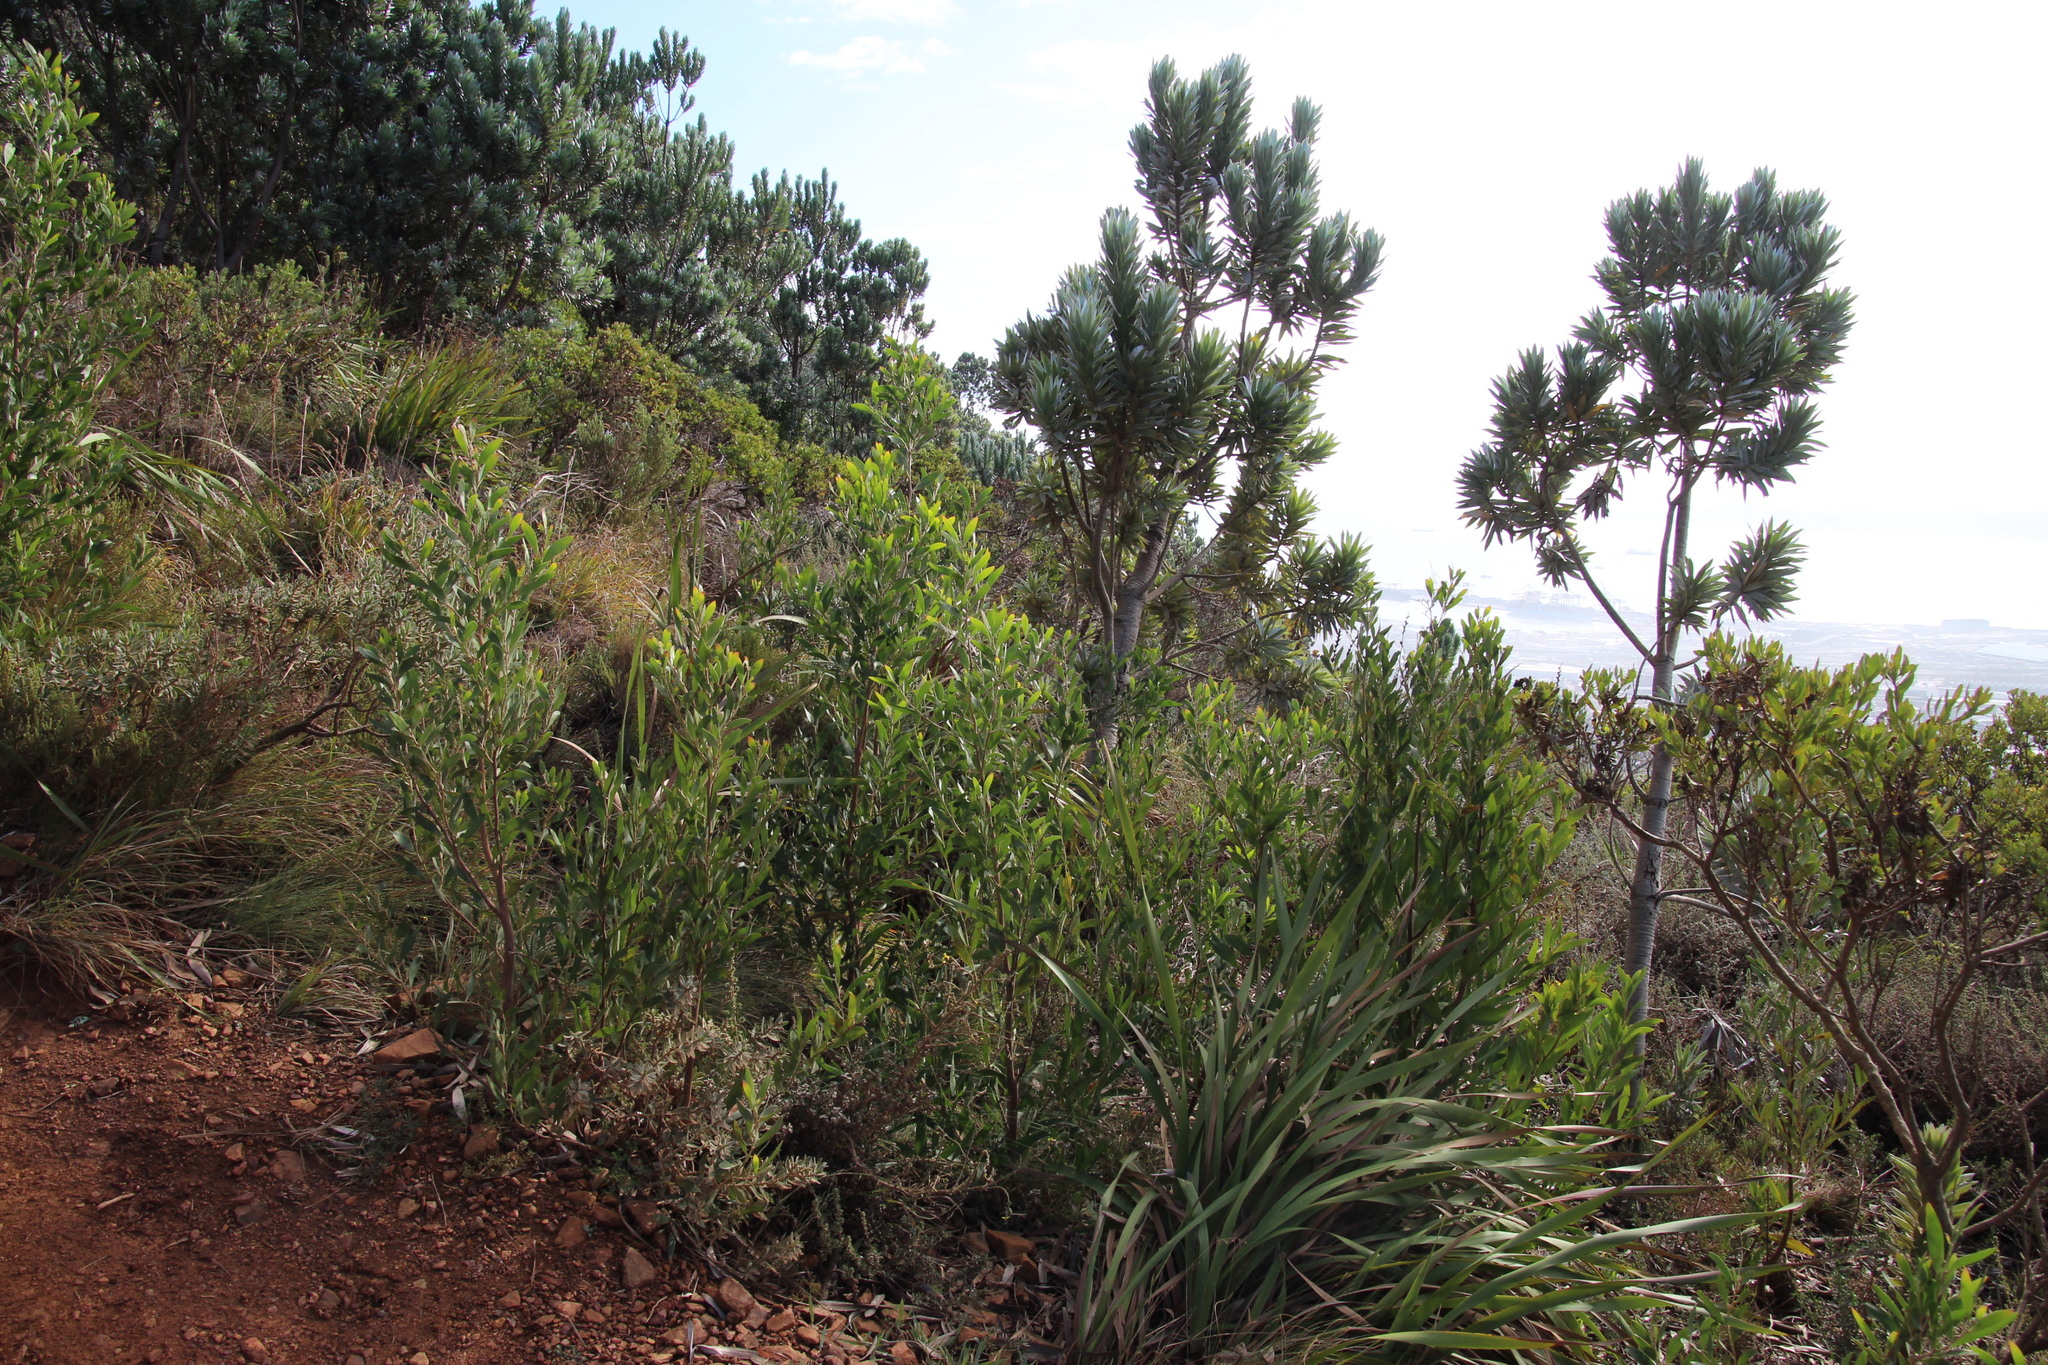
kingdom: Plantae
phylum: Tracheophyta
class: Magnoliopsida
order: Proteales
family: Proteaceae
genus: Leucadendron
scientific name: Leucadendron argenteum
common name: Cape silver tree
